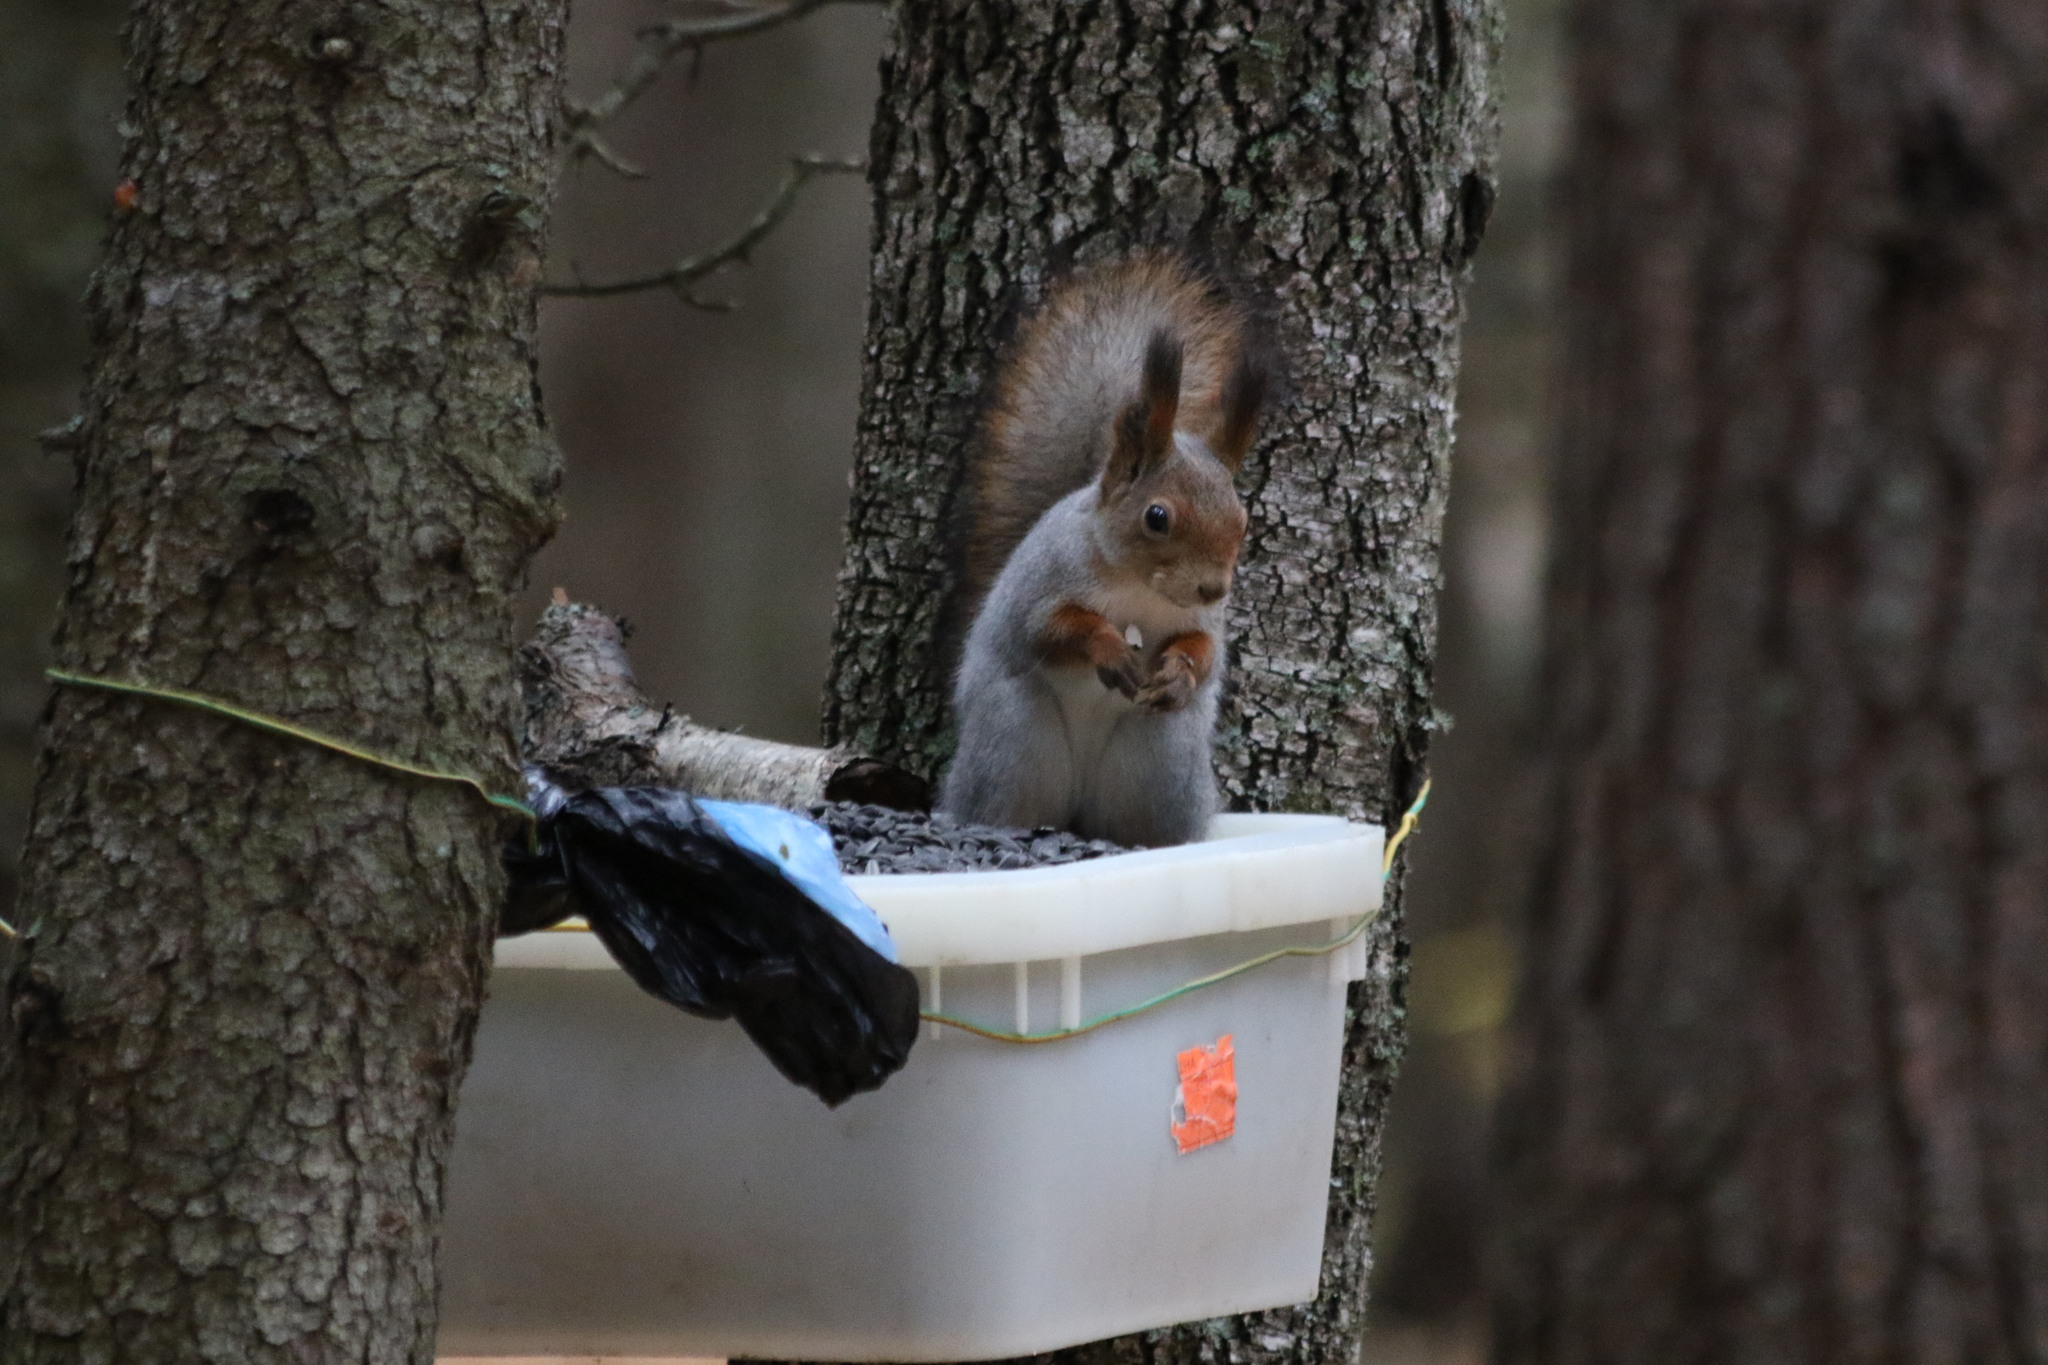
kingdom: Animalia
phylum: Chordata
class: Mammalia
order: Rodentia
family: Sciuridae
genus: Sciurus
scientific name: Sciurus vulgaris
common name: Eurasian red squirrel
